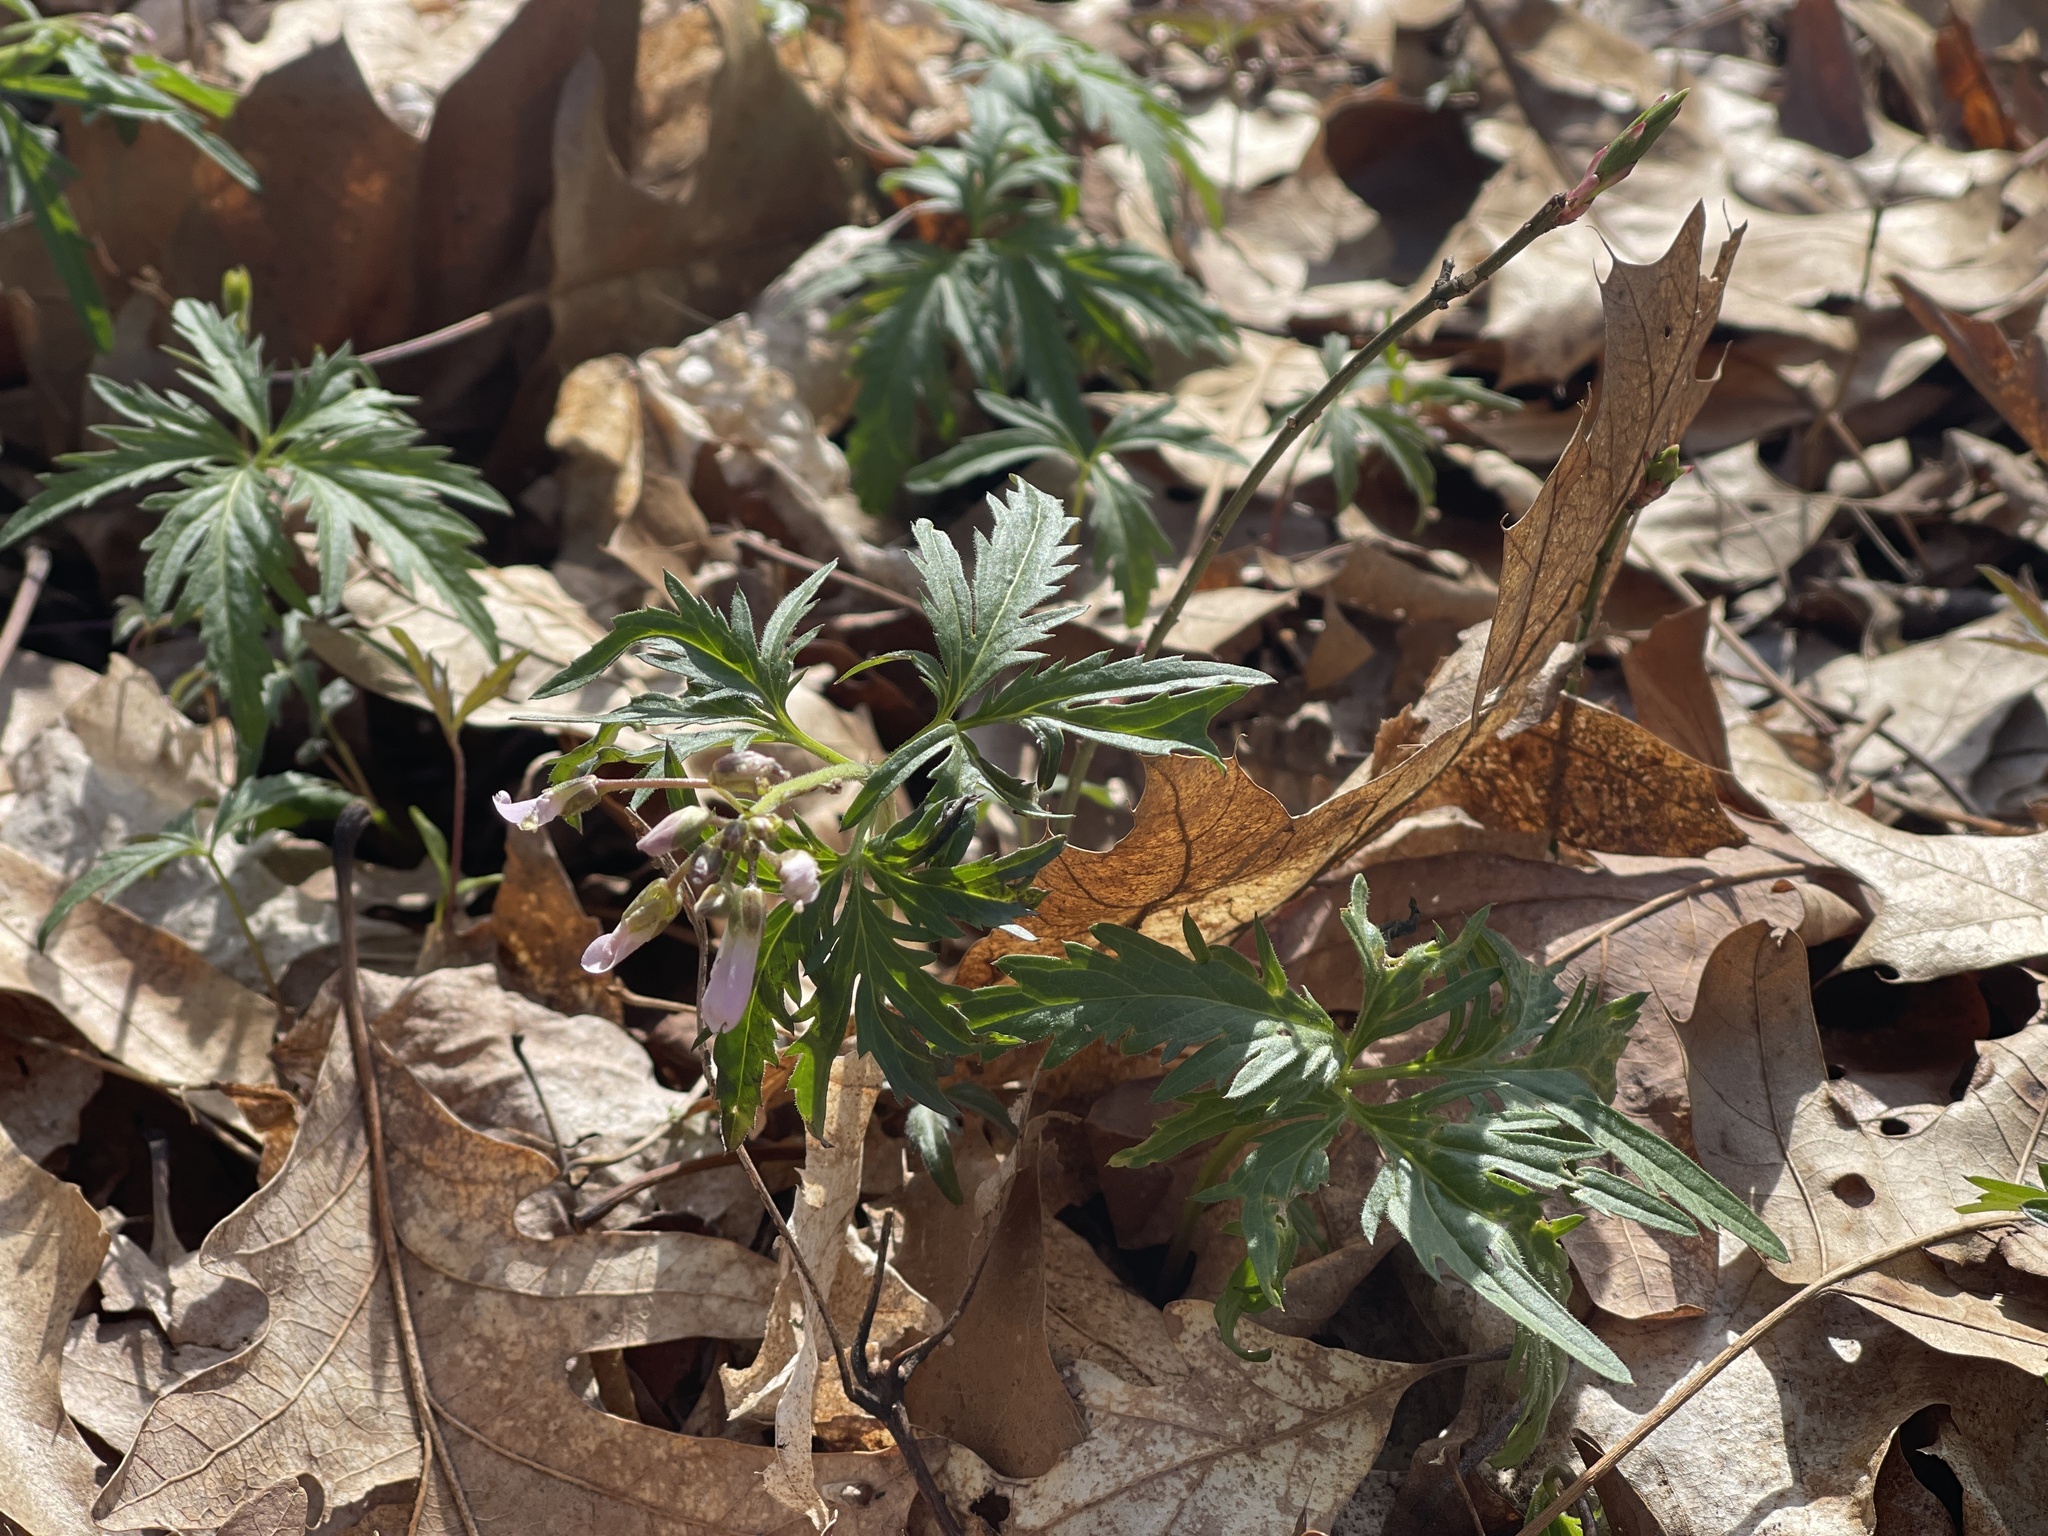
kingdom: Plantae
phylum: Tracheophyta
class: Magnoliopsida
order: Brassicales
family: Brassicaceae
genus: Cardamine
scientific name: Cardamine concatenata
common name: Cut-leaf toothcup
